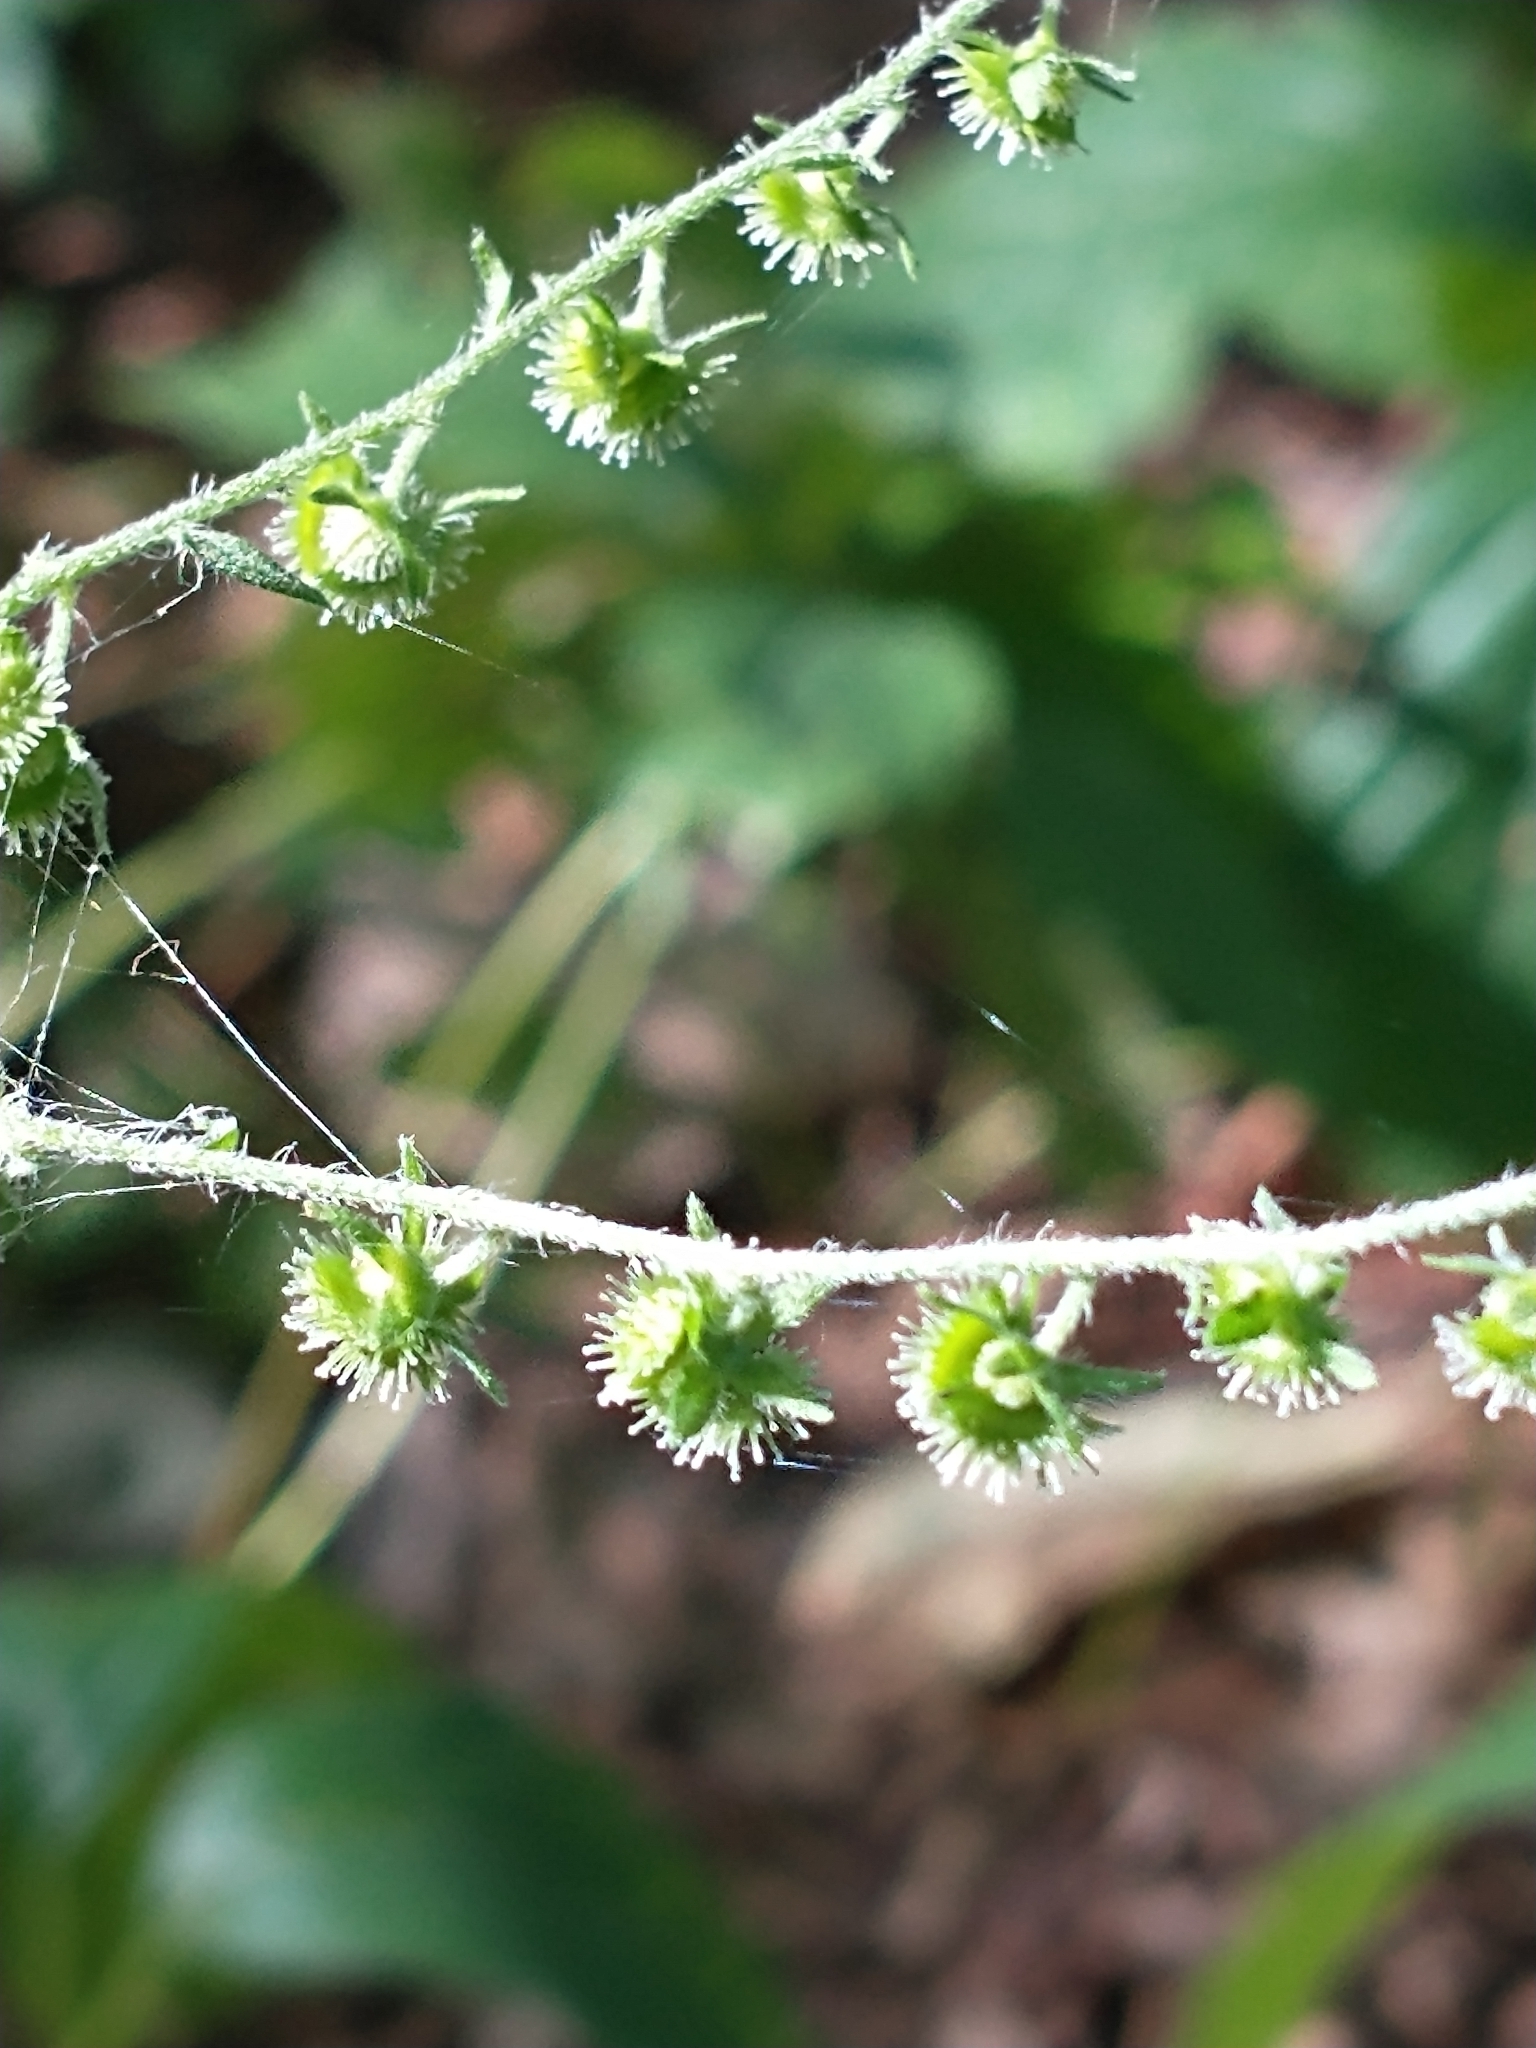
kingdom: Plantae
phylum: Tracheophyta
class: Magnoliopsida
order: Boraginales
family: Boraginaceae
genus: Hackelia
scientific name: Hackelia virginiana
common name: Beggar's-lice
